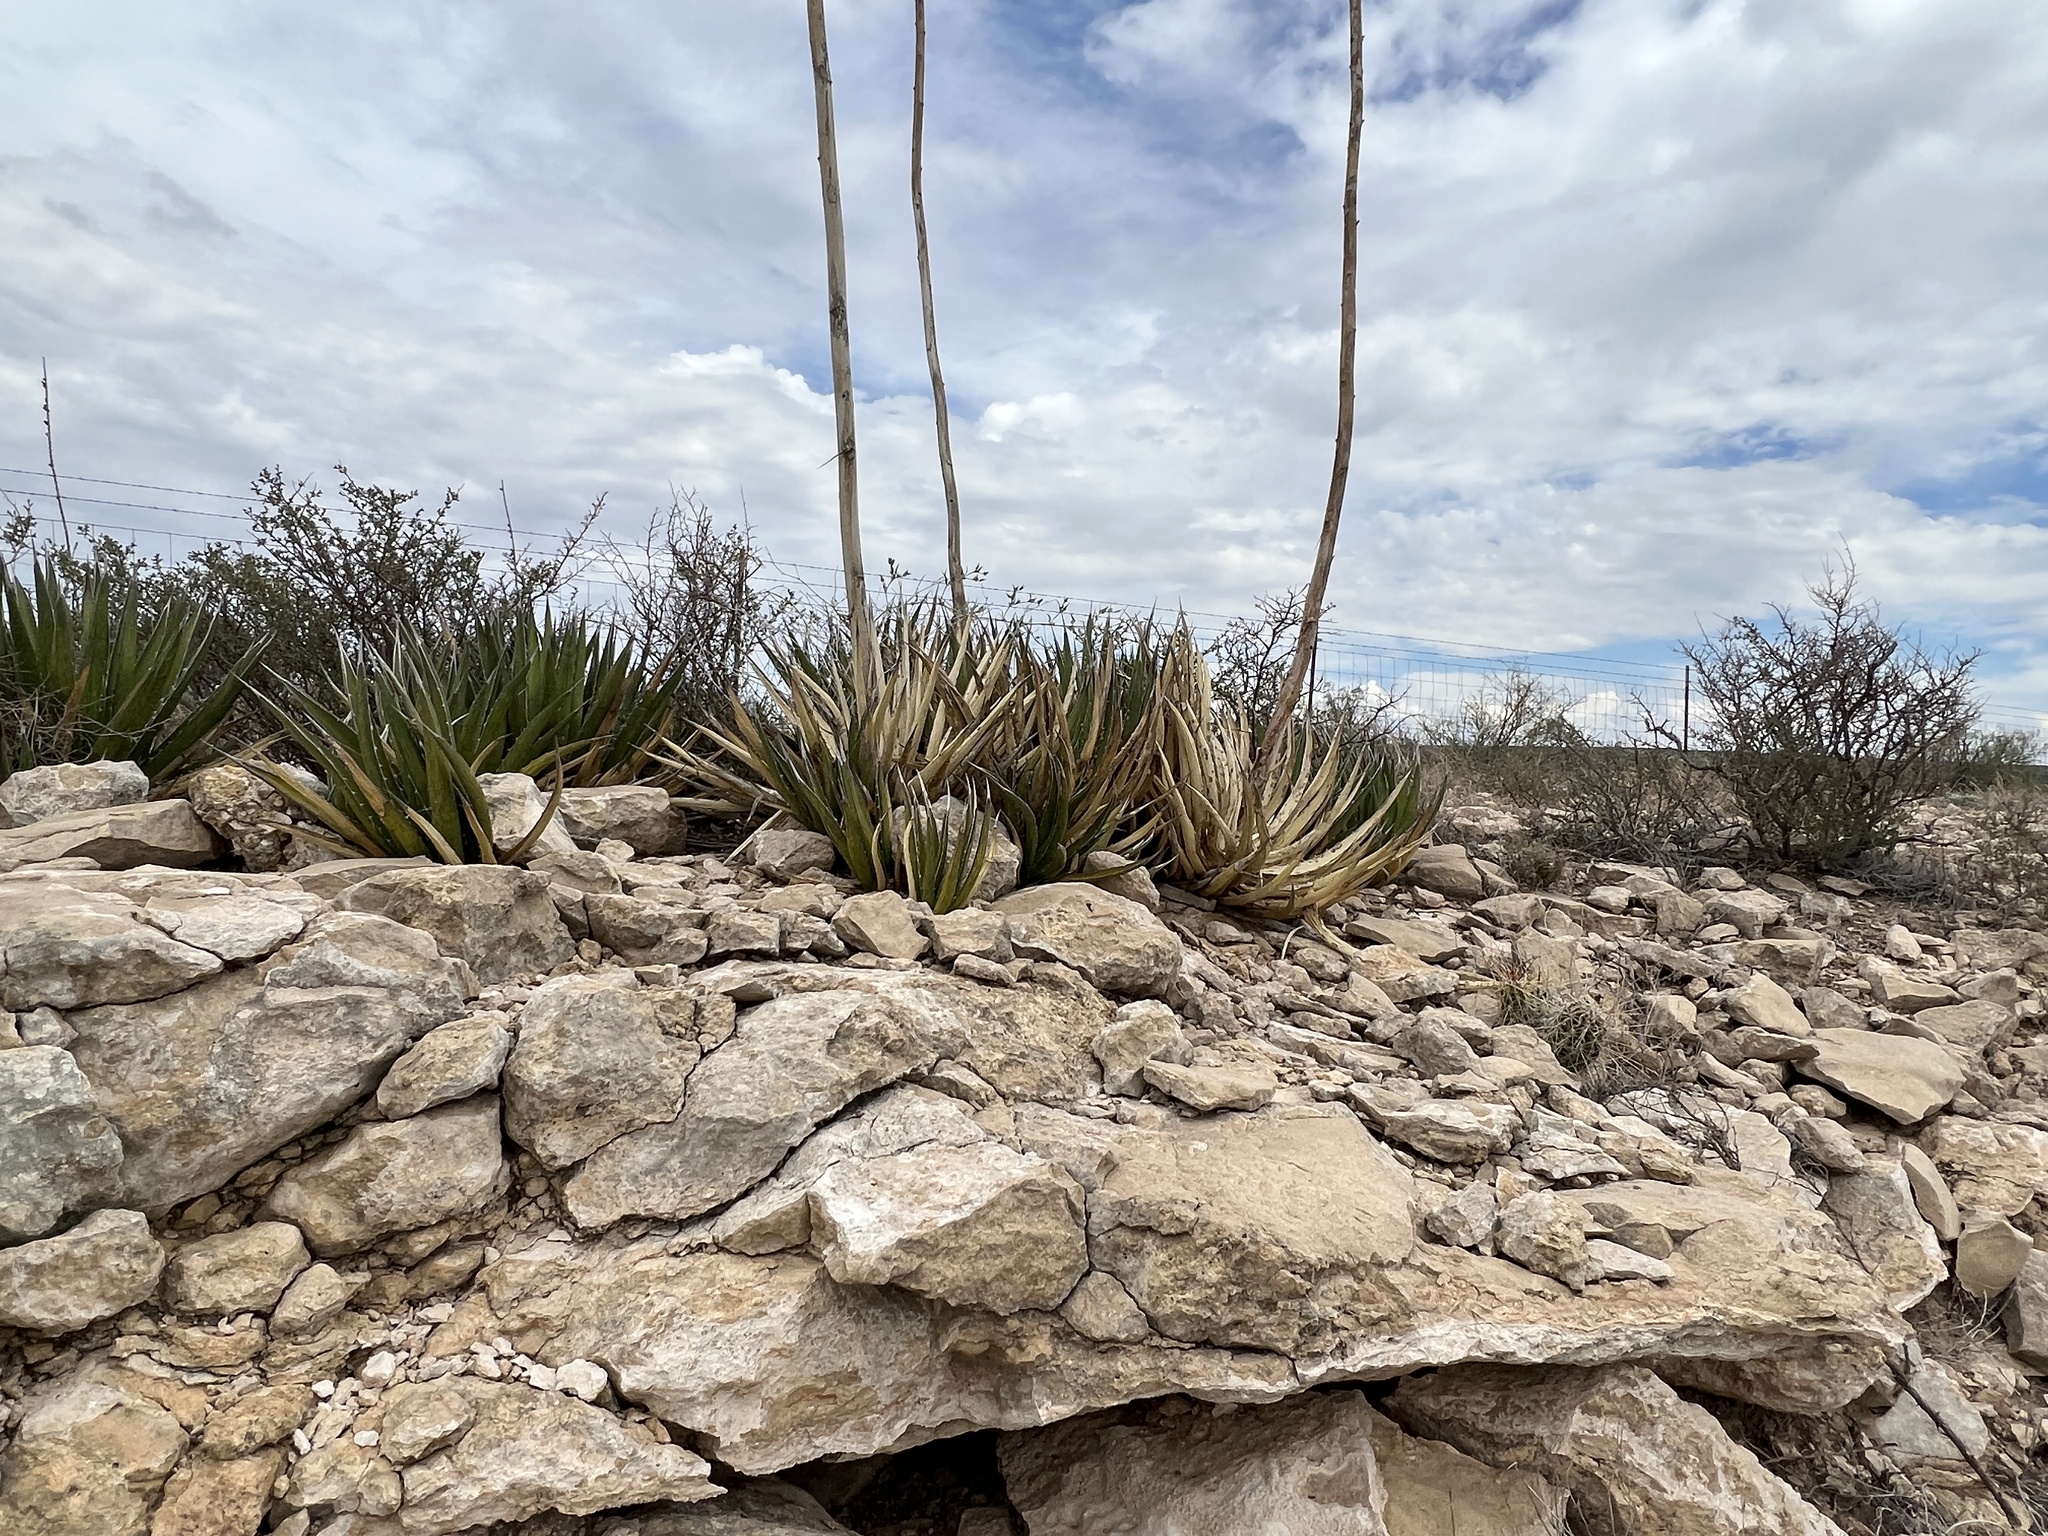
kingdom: Plantae
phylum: Tracheophyta
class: Liliopsida
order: Asparagales
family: Asparagaceae
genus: Agave
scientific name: Agave lechuguilla
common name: Lecheguilla agave
